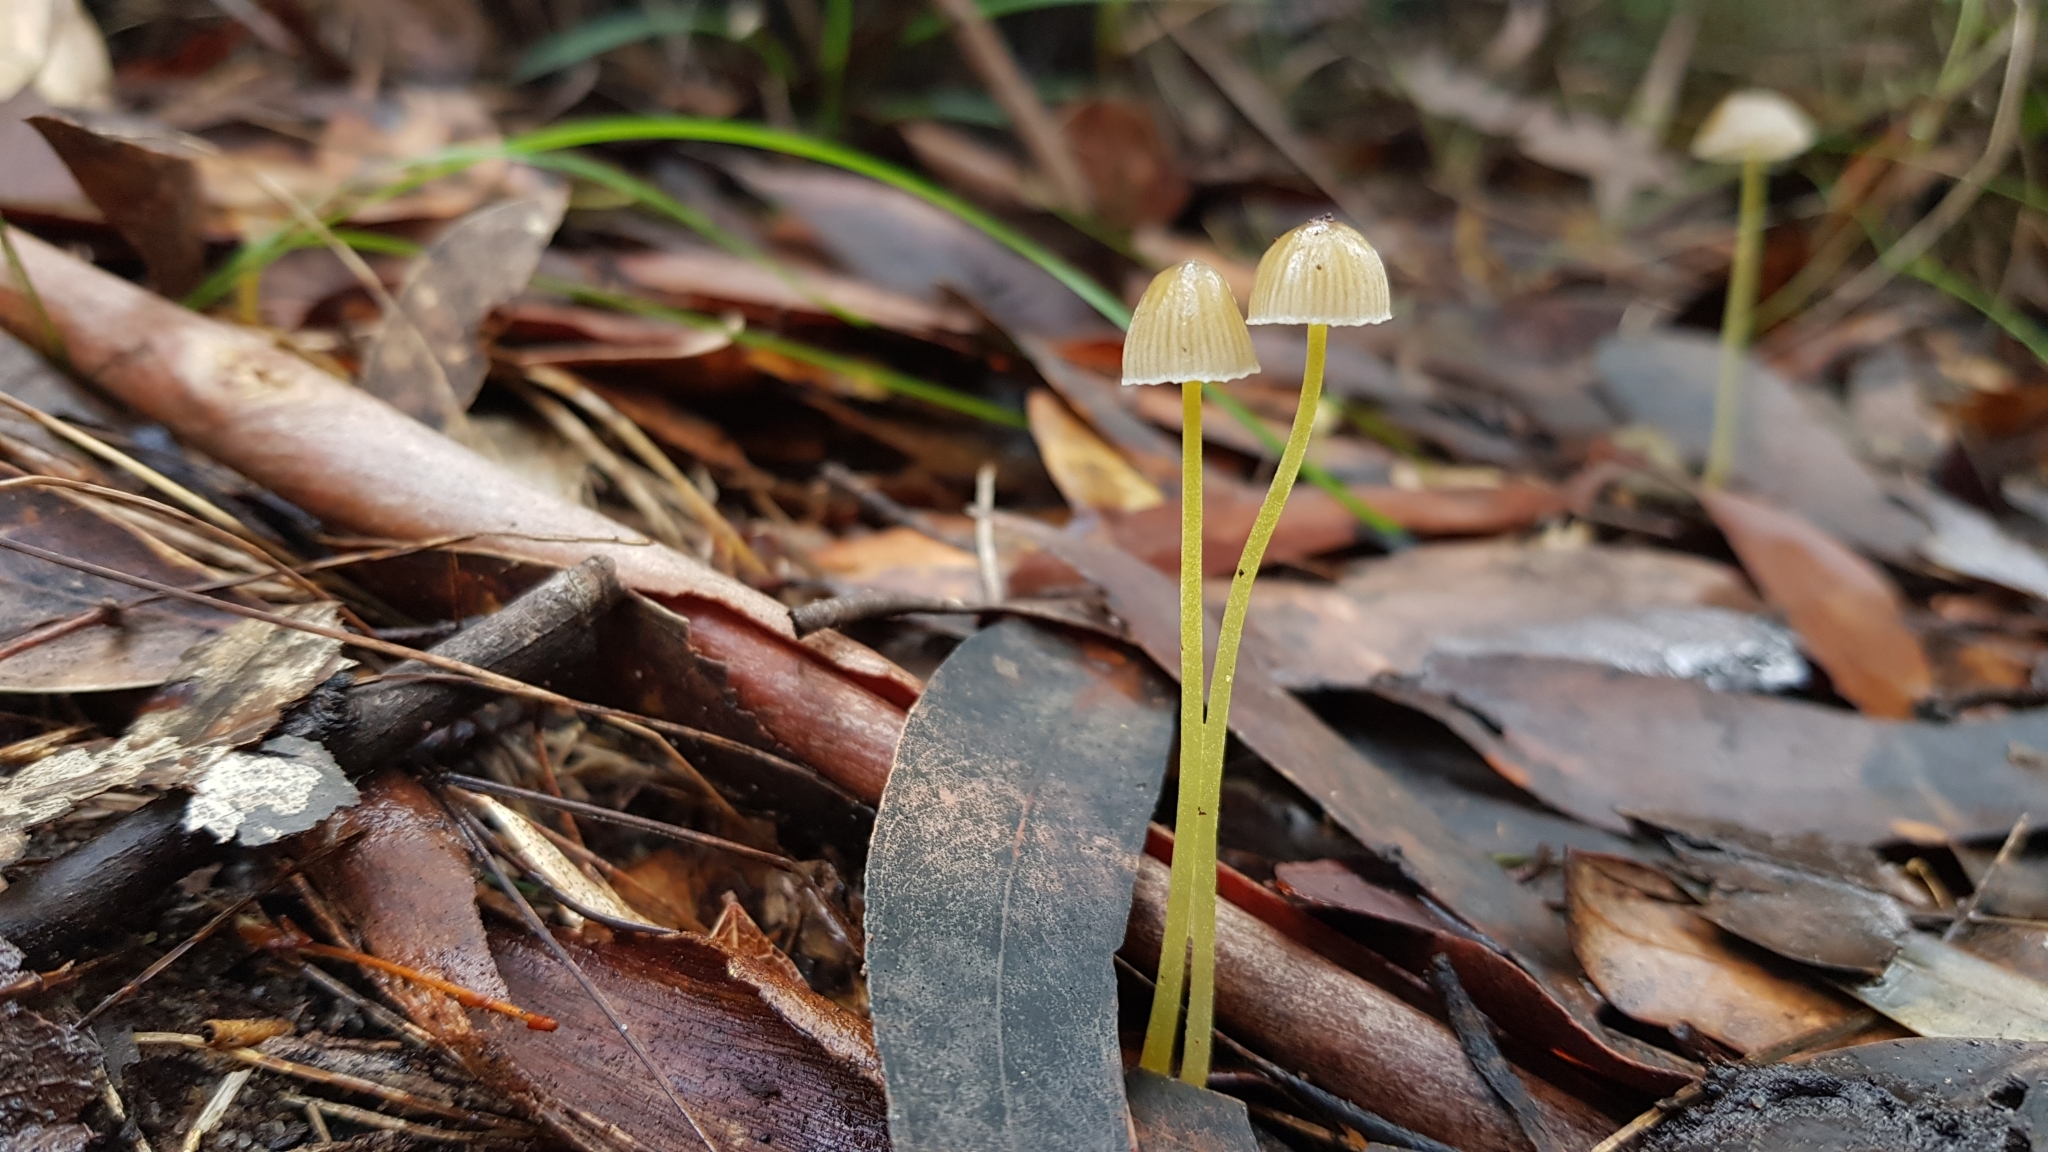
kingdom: Fungi
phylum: Basidiomycota
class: Agaricomycetes
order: Agaricales
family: Mycenaceae
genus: Mycena
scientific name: Mycena epipterygia
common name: Yellowleg bonnet
